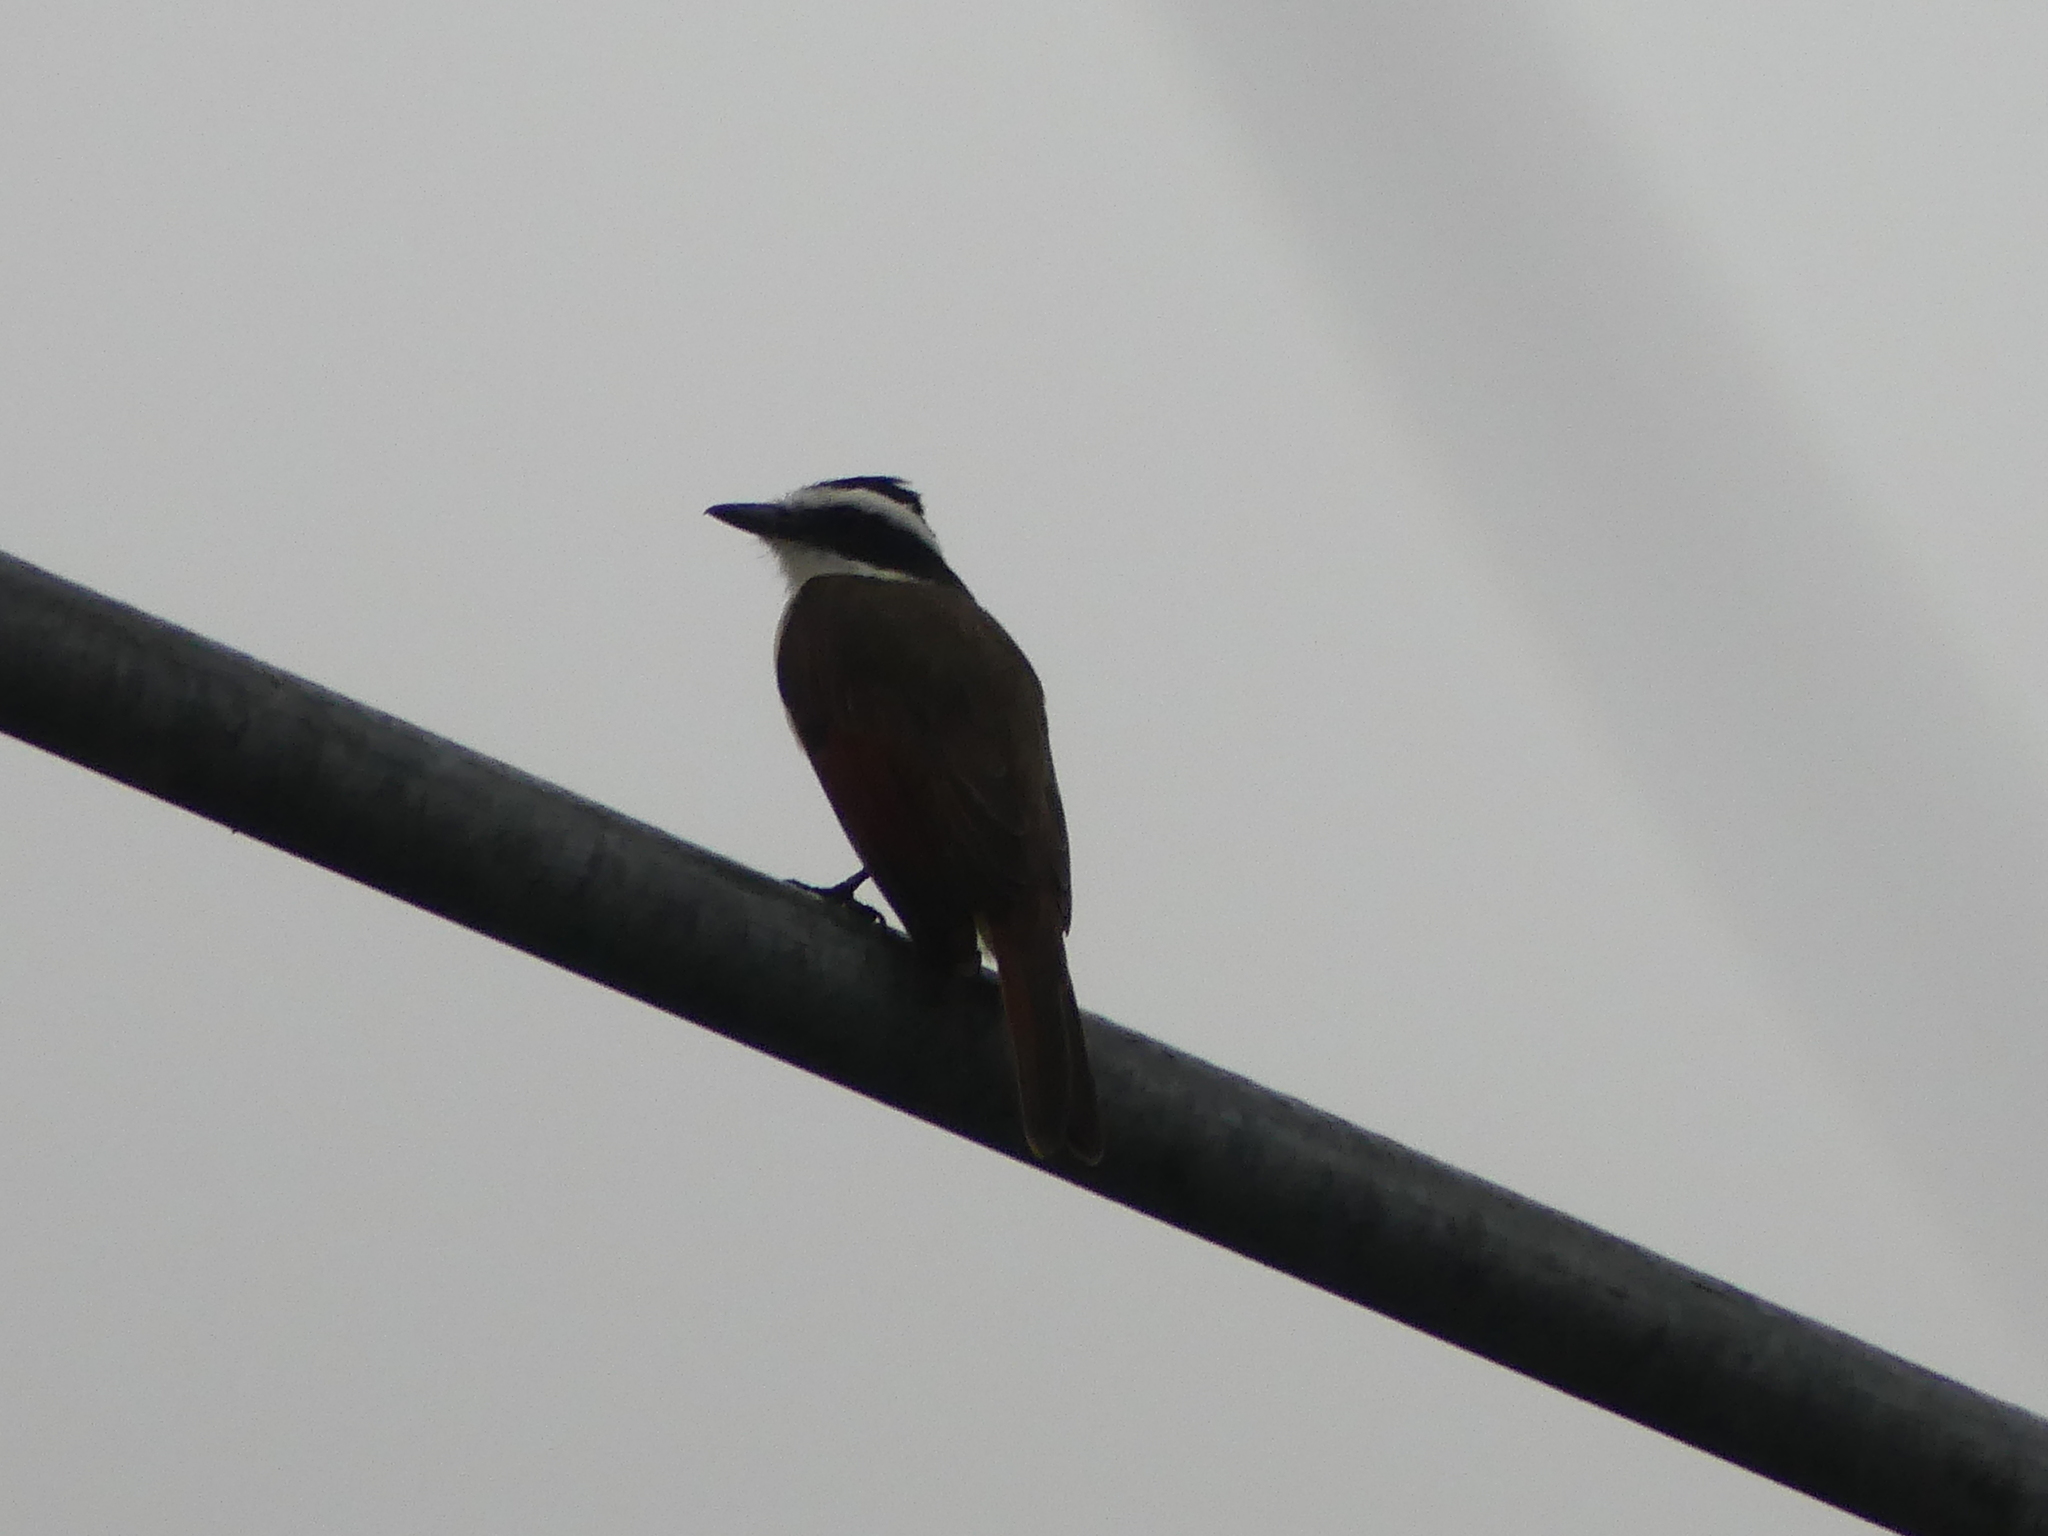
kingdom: Animalia
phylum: Chordata
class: Aves
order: Passeriformes
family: Tyrannidae
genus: Pitangus
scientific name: Pitangus sulphuratus
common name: Great kiskadee
